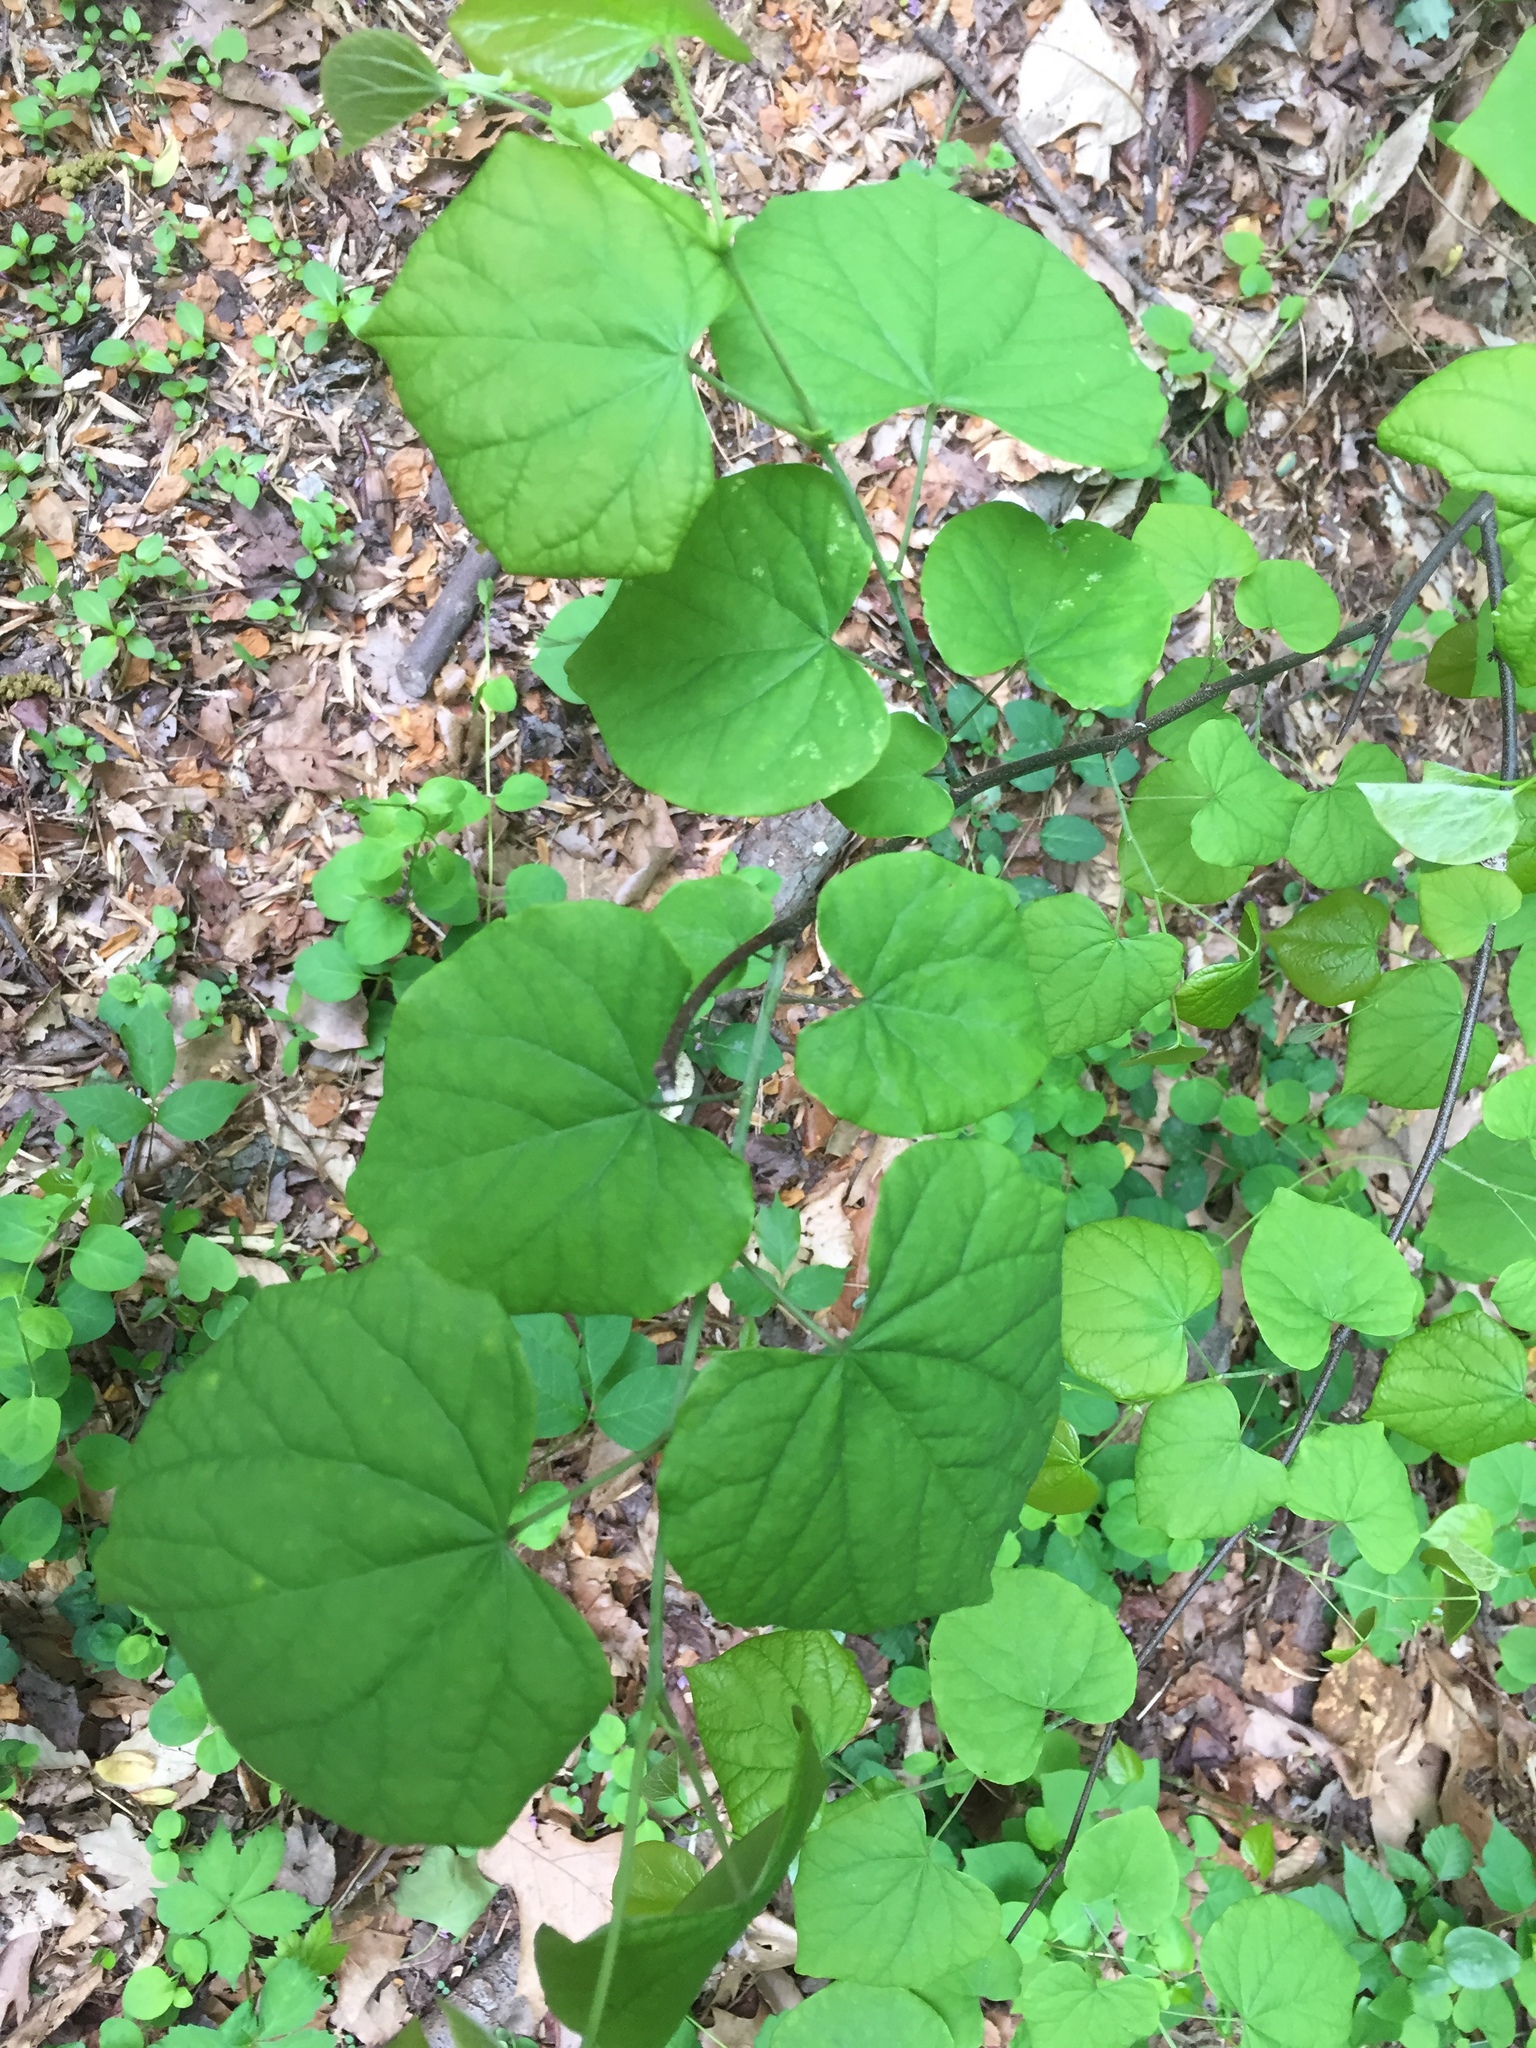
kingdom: Plantae
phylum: Tracheophyta
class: Magnoliopsida
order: Fabales
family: Fabaceae
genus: Cercis
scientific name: Cercis canadensis
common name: Eastern redbud
